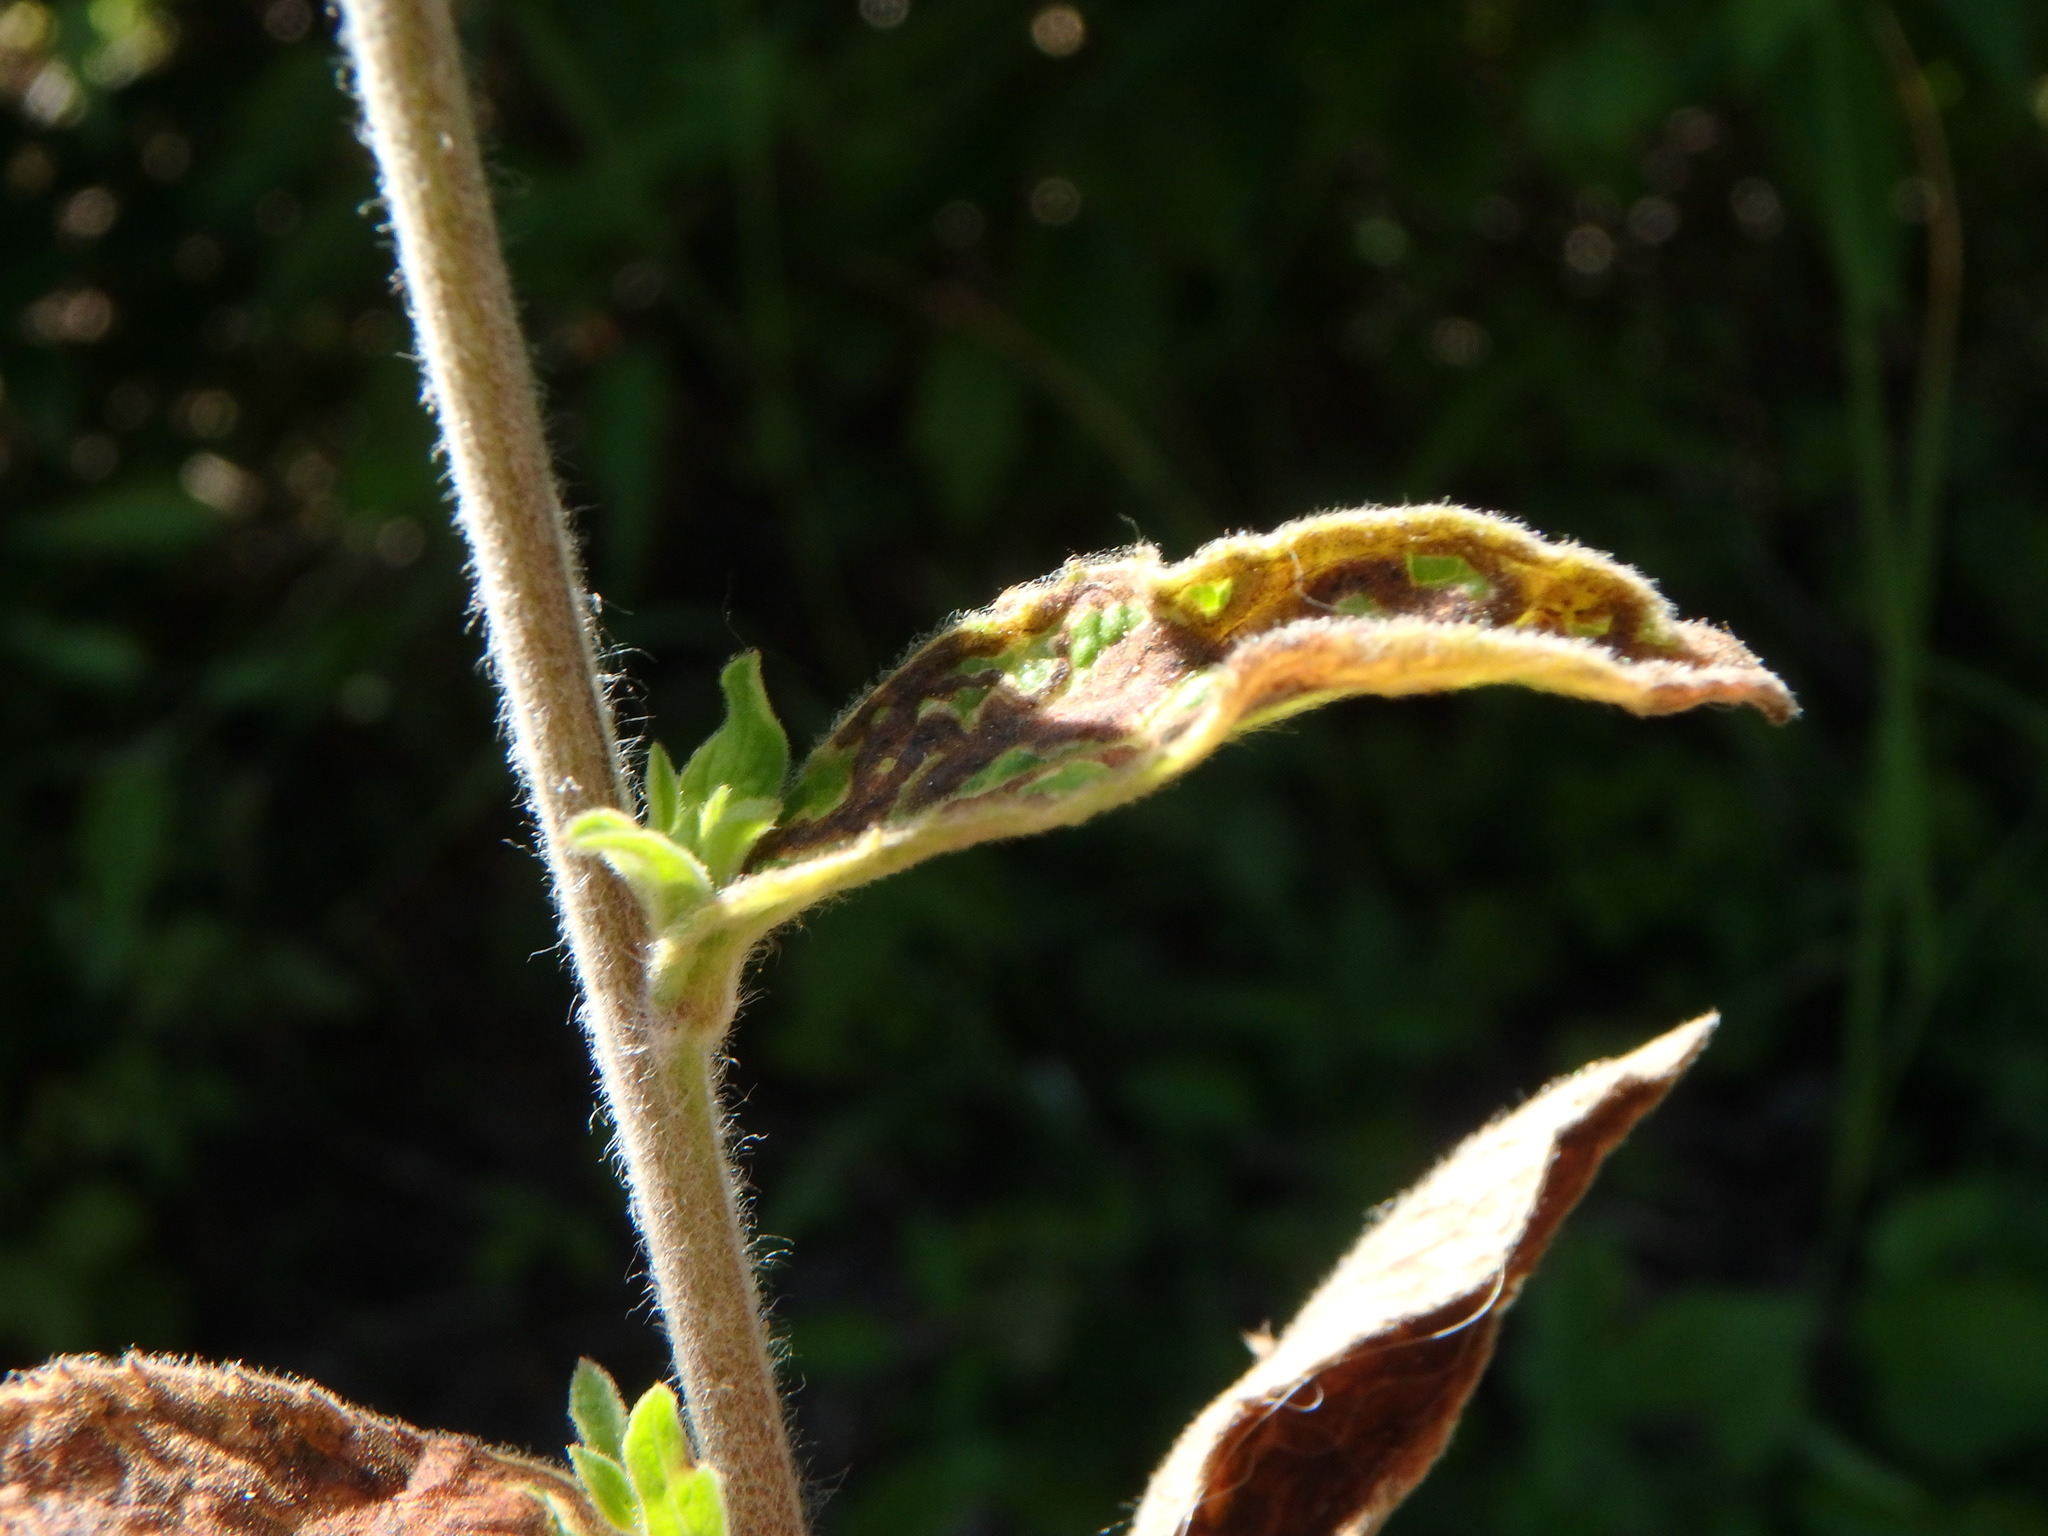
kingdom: Plantae
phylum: Tracheophyta
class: Magnoliopsida
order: Asterales
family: Asteraceae
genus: Pentanema
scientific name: Pentanema squarrosum
